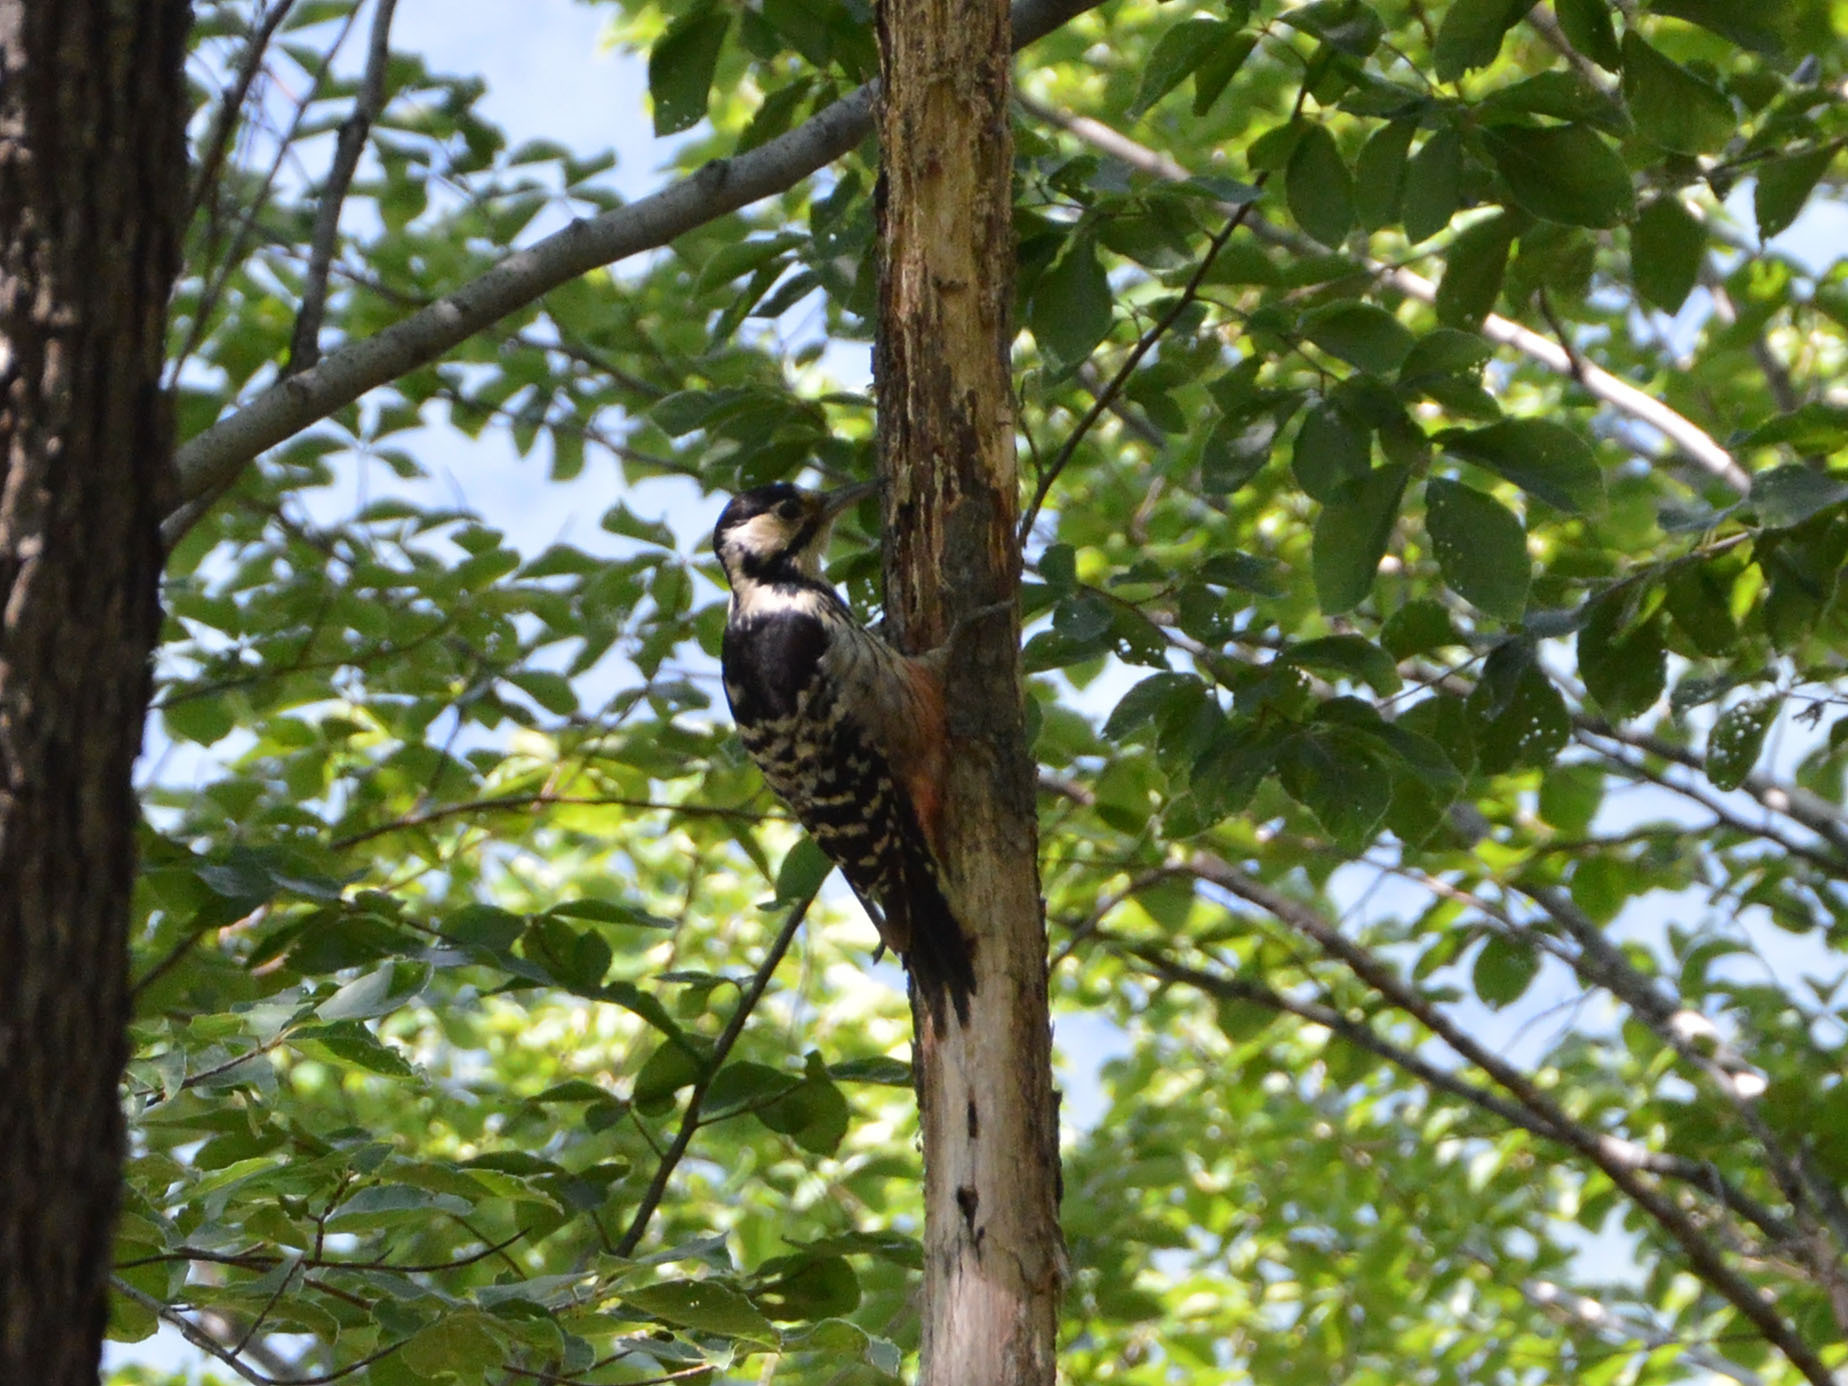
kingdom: Animalia
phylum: Chordata
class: Aves
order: Piciformes
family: Picidae
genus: Dendrocopos
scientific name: Dendrocopos leucotos
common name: White-backed woodpecker
